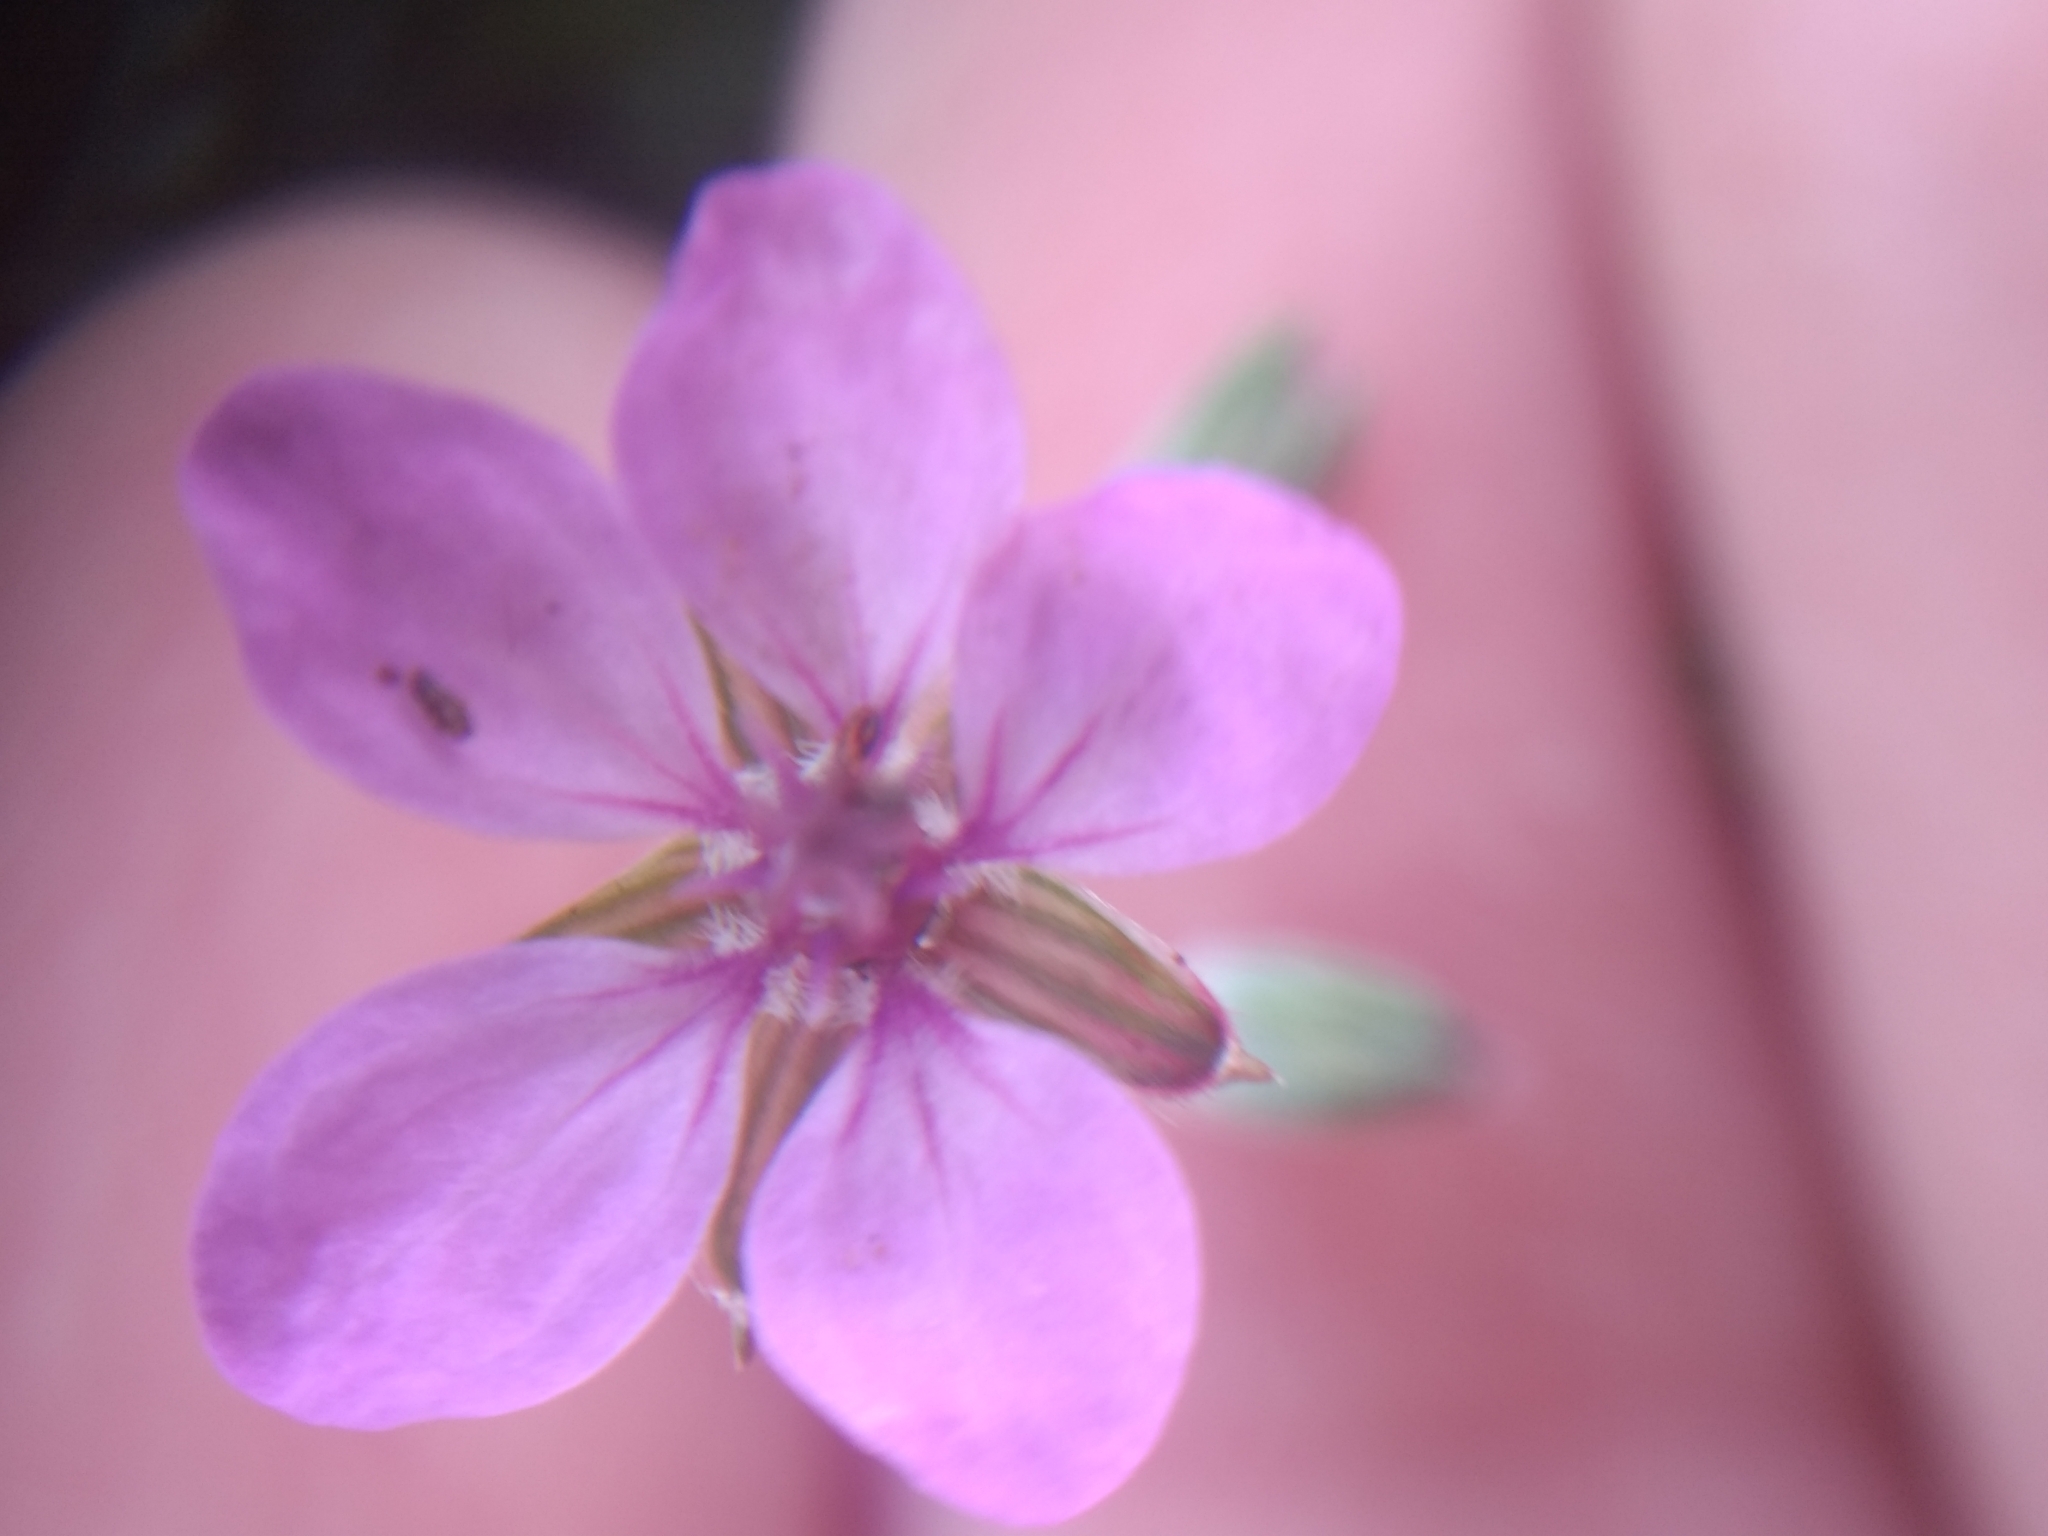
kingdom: Plantae
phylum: Tracheophyta
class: Magnoliopsida
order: Geraniales
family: Geraniaceae
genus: Erodium
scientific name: Erodium cicutarium
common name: Common stork's-bill
